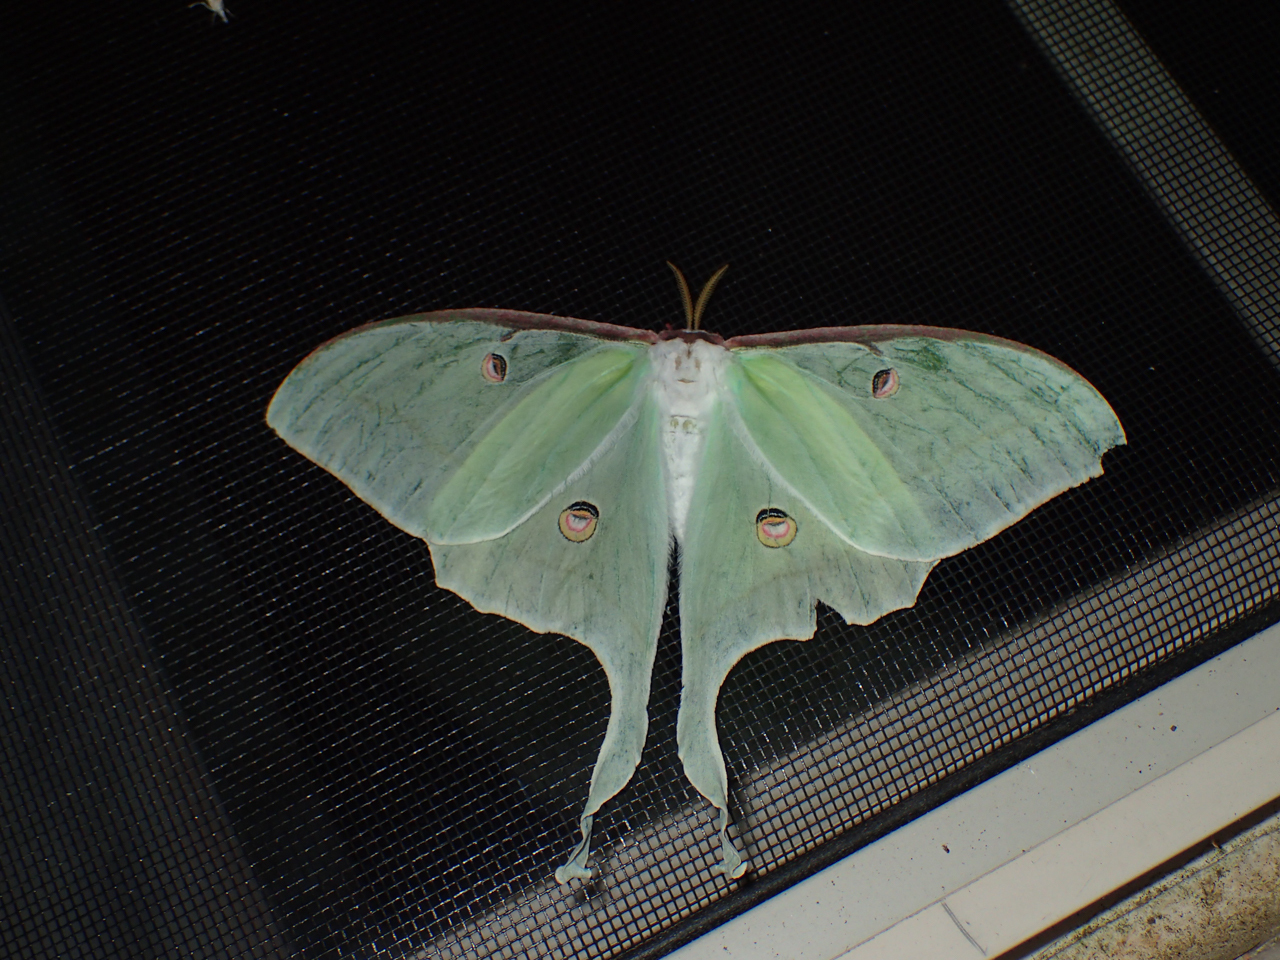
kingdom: Animalia
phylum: Arthropoda
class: Insecta
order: Lepidoptera
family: Saturniidae
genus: Actias
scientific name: Actias luna
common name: Luna moth
